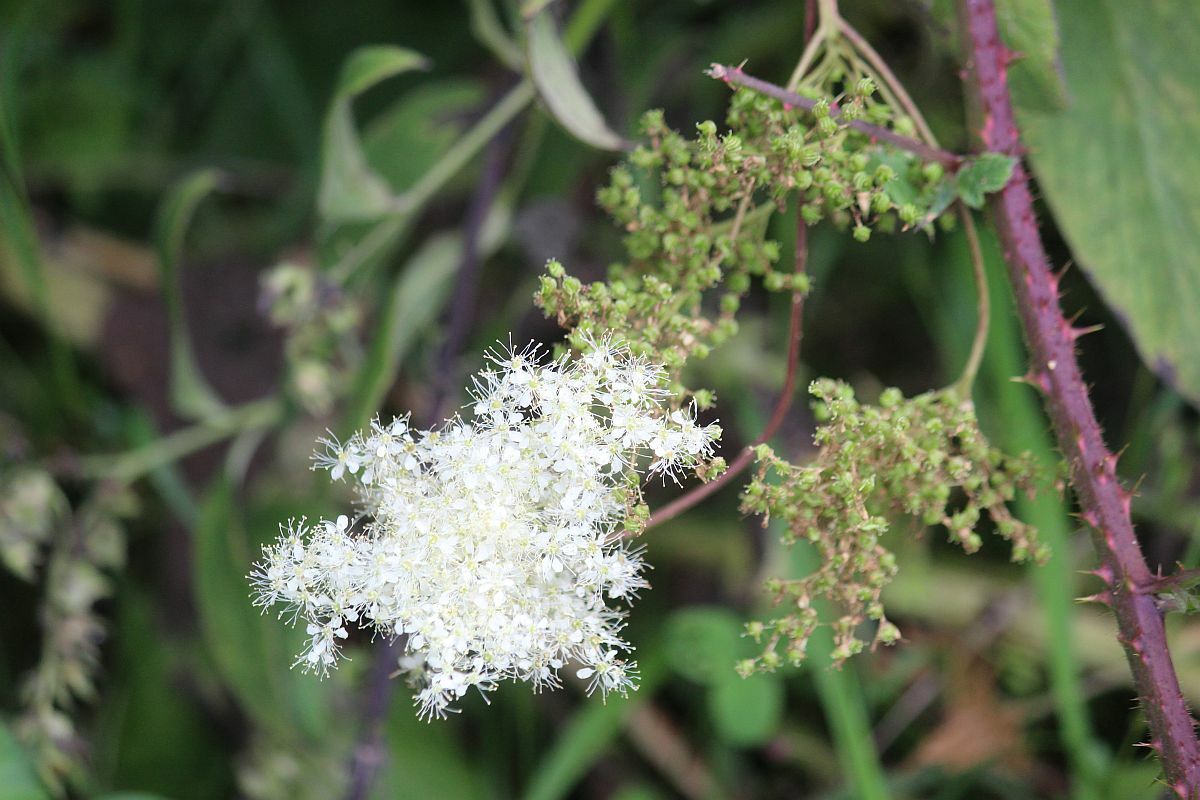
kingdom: Plantae
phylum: Tracheophyta
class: Magnoliopsida
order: Rosales
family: Rosaceae
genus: Filipendula
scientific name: Filipendula ulmaria
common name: Meadowsweet
